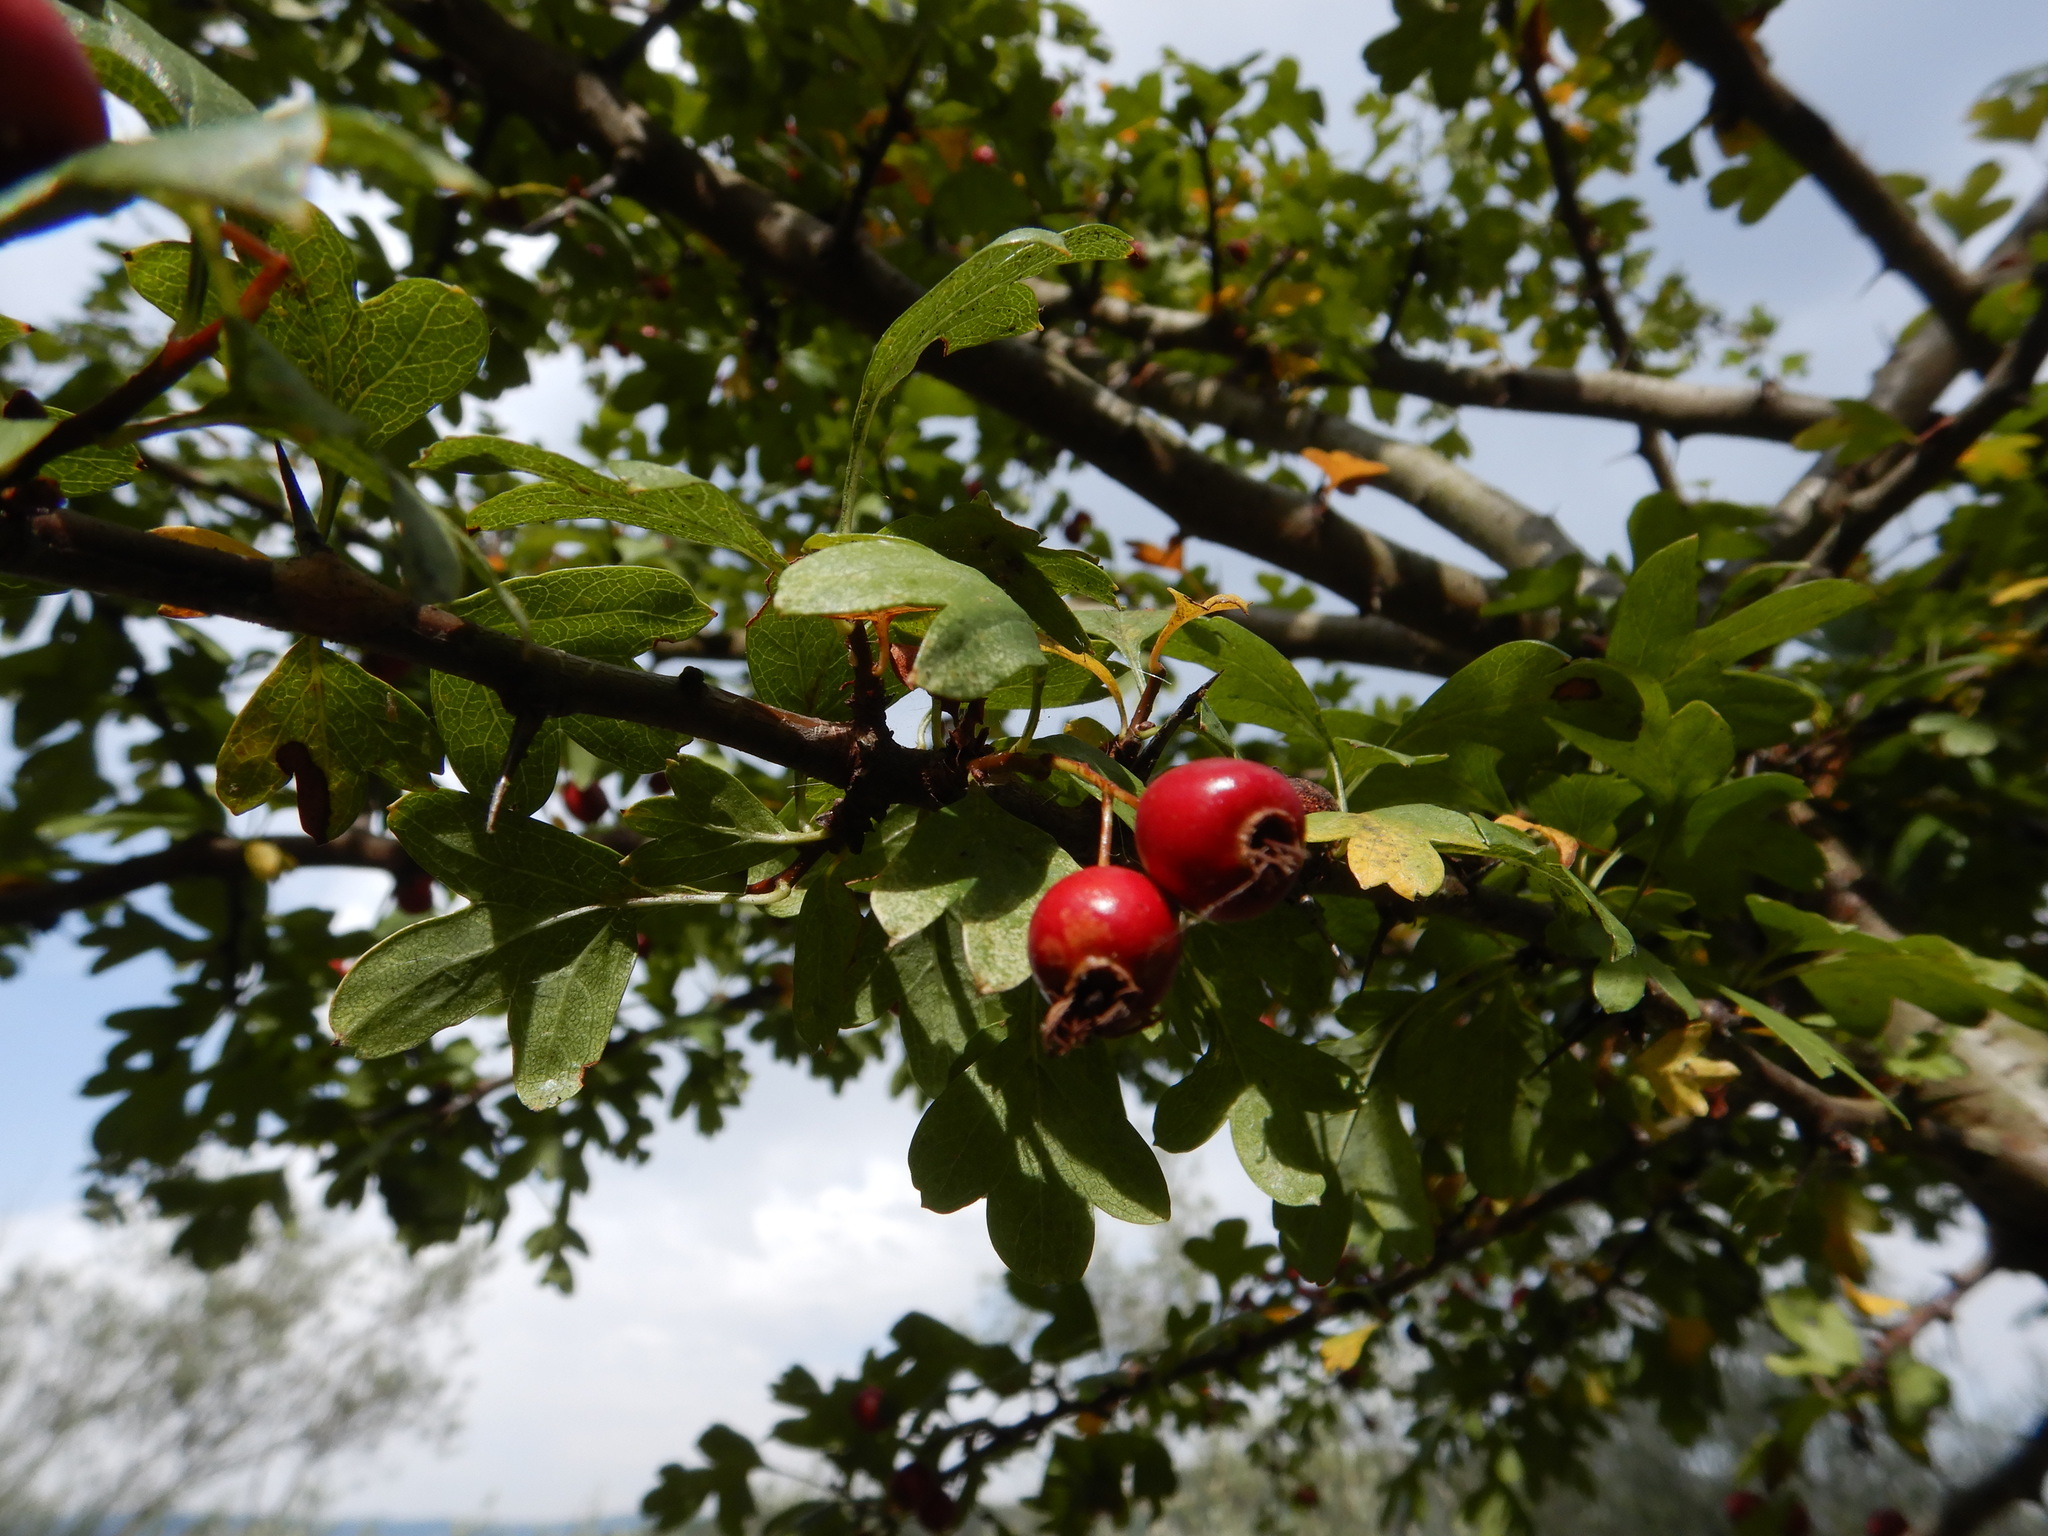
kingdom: Plantae
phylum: Tracheophyta
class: Magnoliopsida
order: Rosales
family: Rosaceae
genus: Crataegus
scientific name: Crataegus monogyna
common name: Hawthorn
